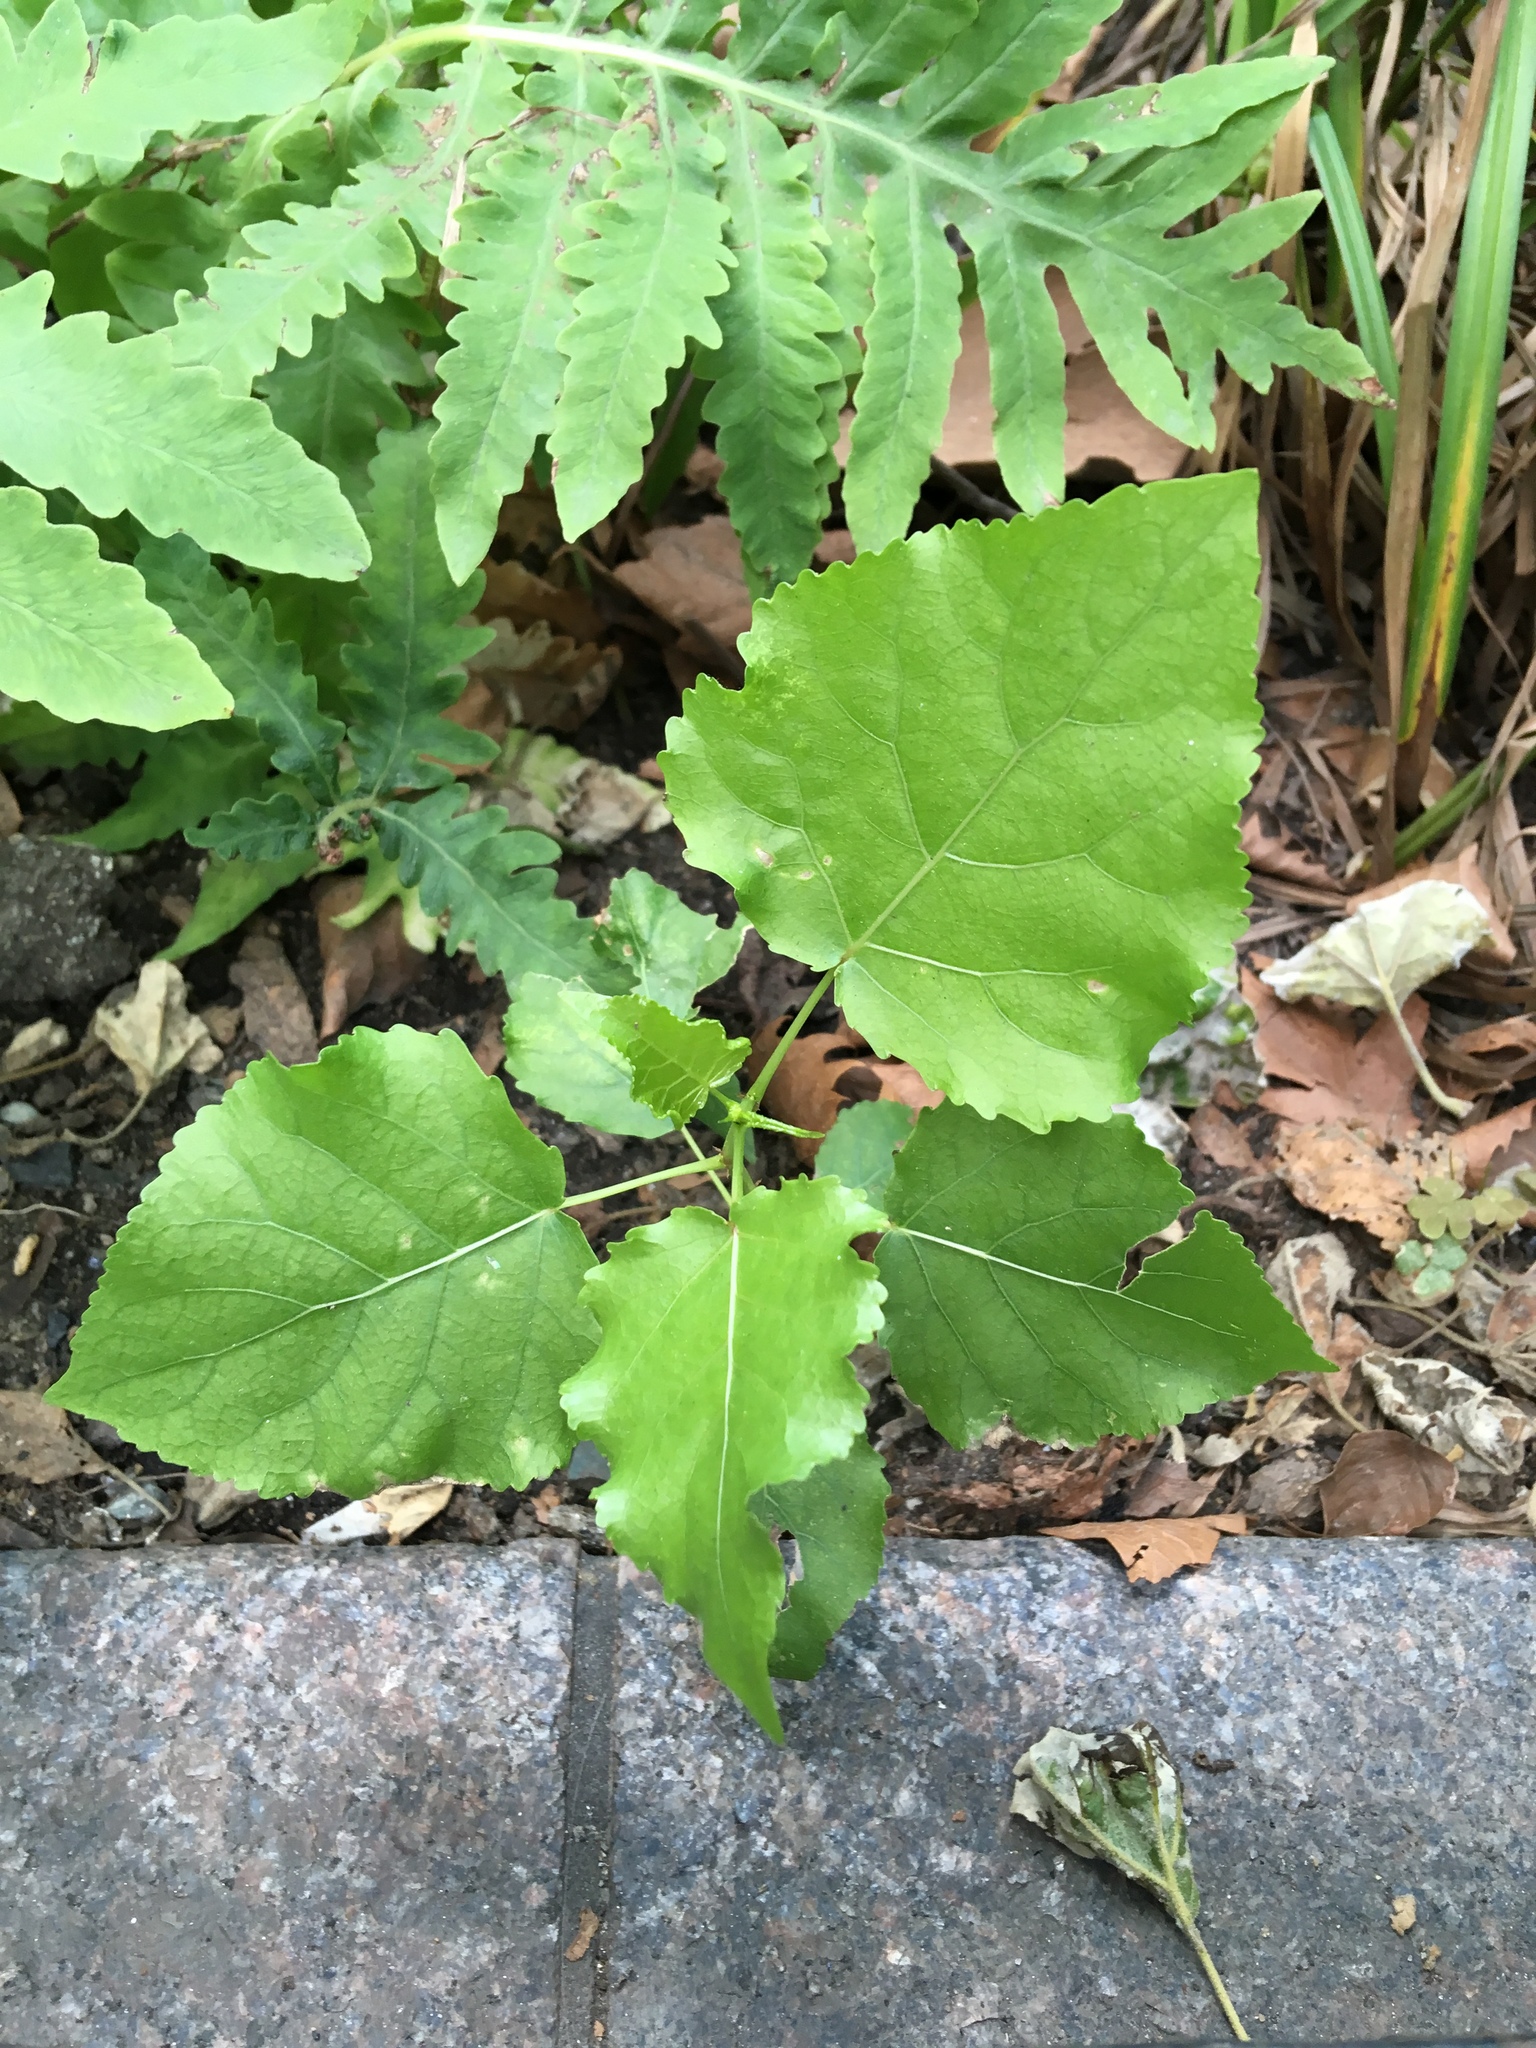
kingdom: Plantae
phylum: Tracheophyta
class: Magnoliopsida
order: Malpighiales
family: Salicaceae
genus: Populus
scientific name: Populus deltoides
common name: Eastern cottonwood
